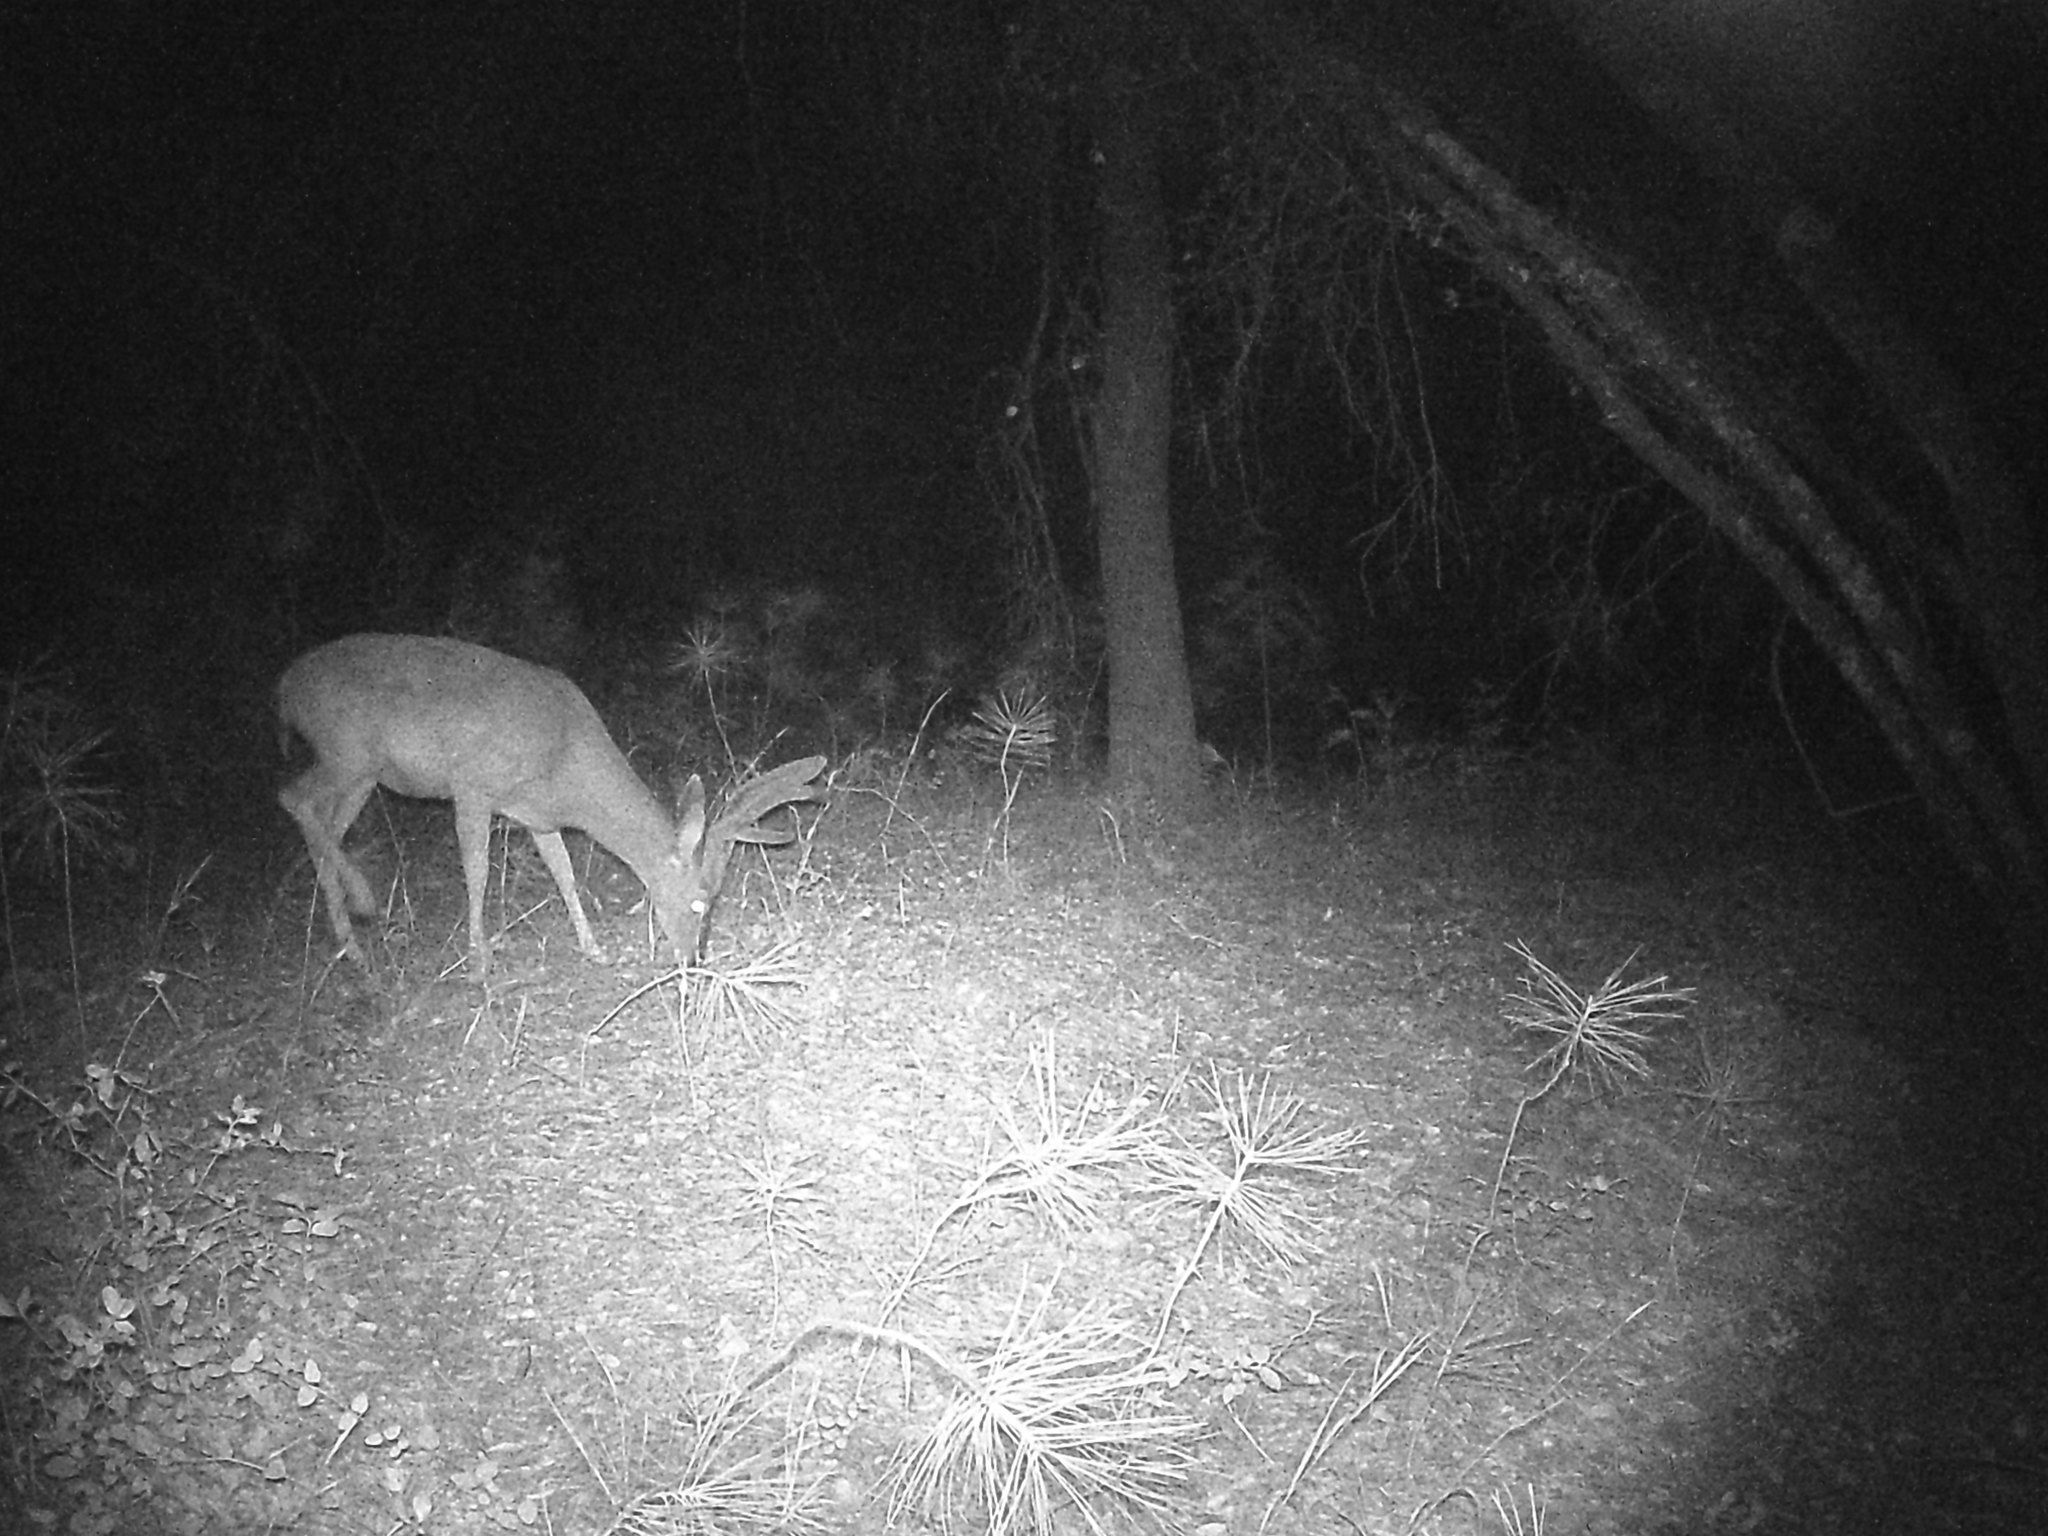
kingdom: Animalia
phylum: Chordata
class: Mammalia
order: Artiodactyla
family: Cervidae
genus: Odocoileus
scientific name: Odocoileus hemionus
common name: Mule deer
